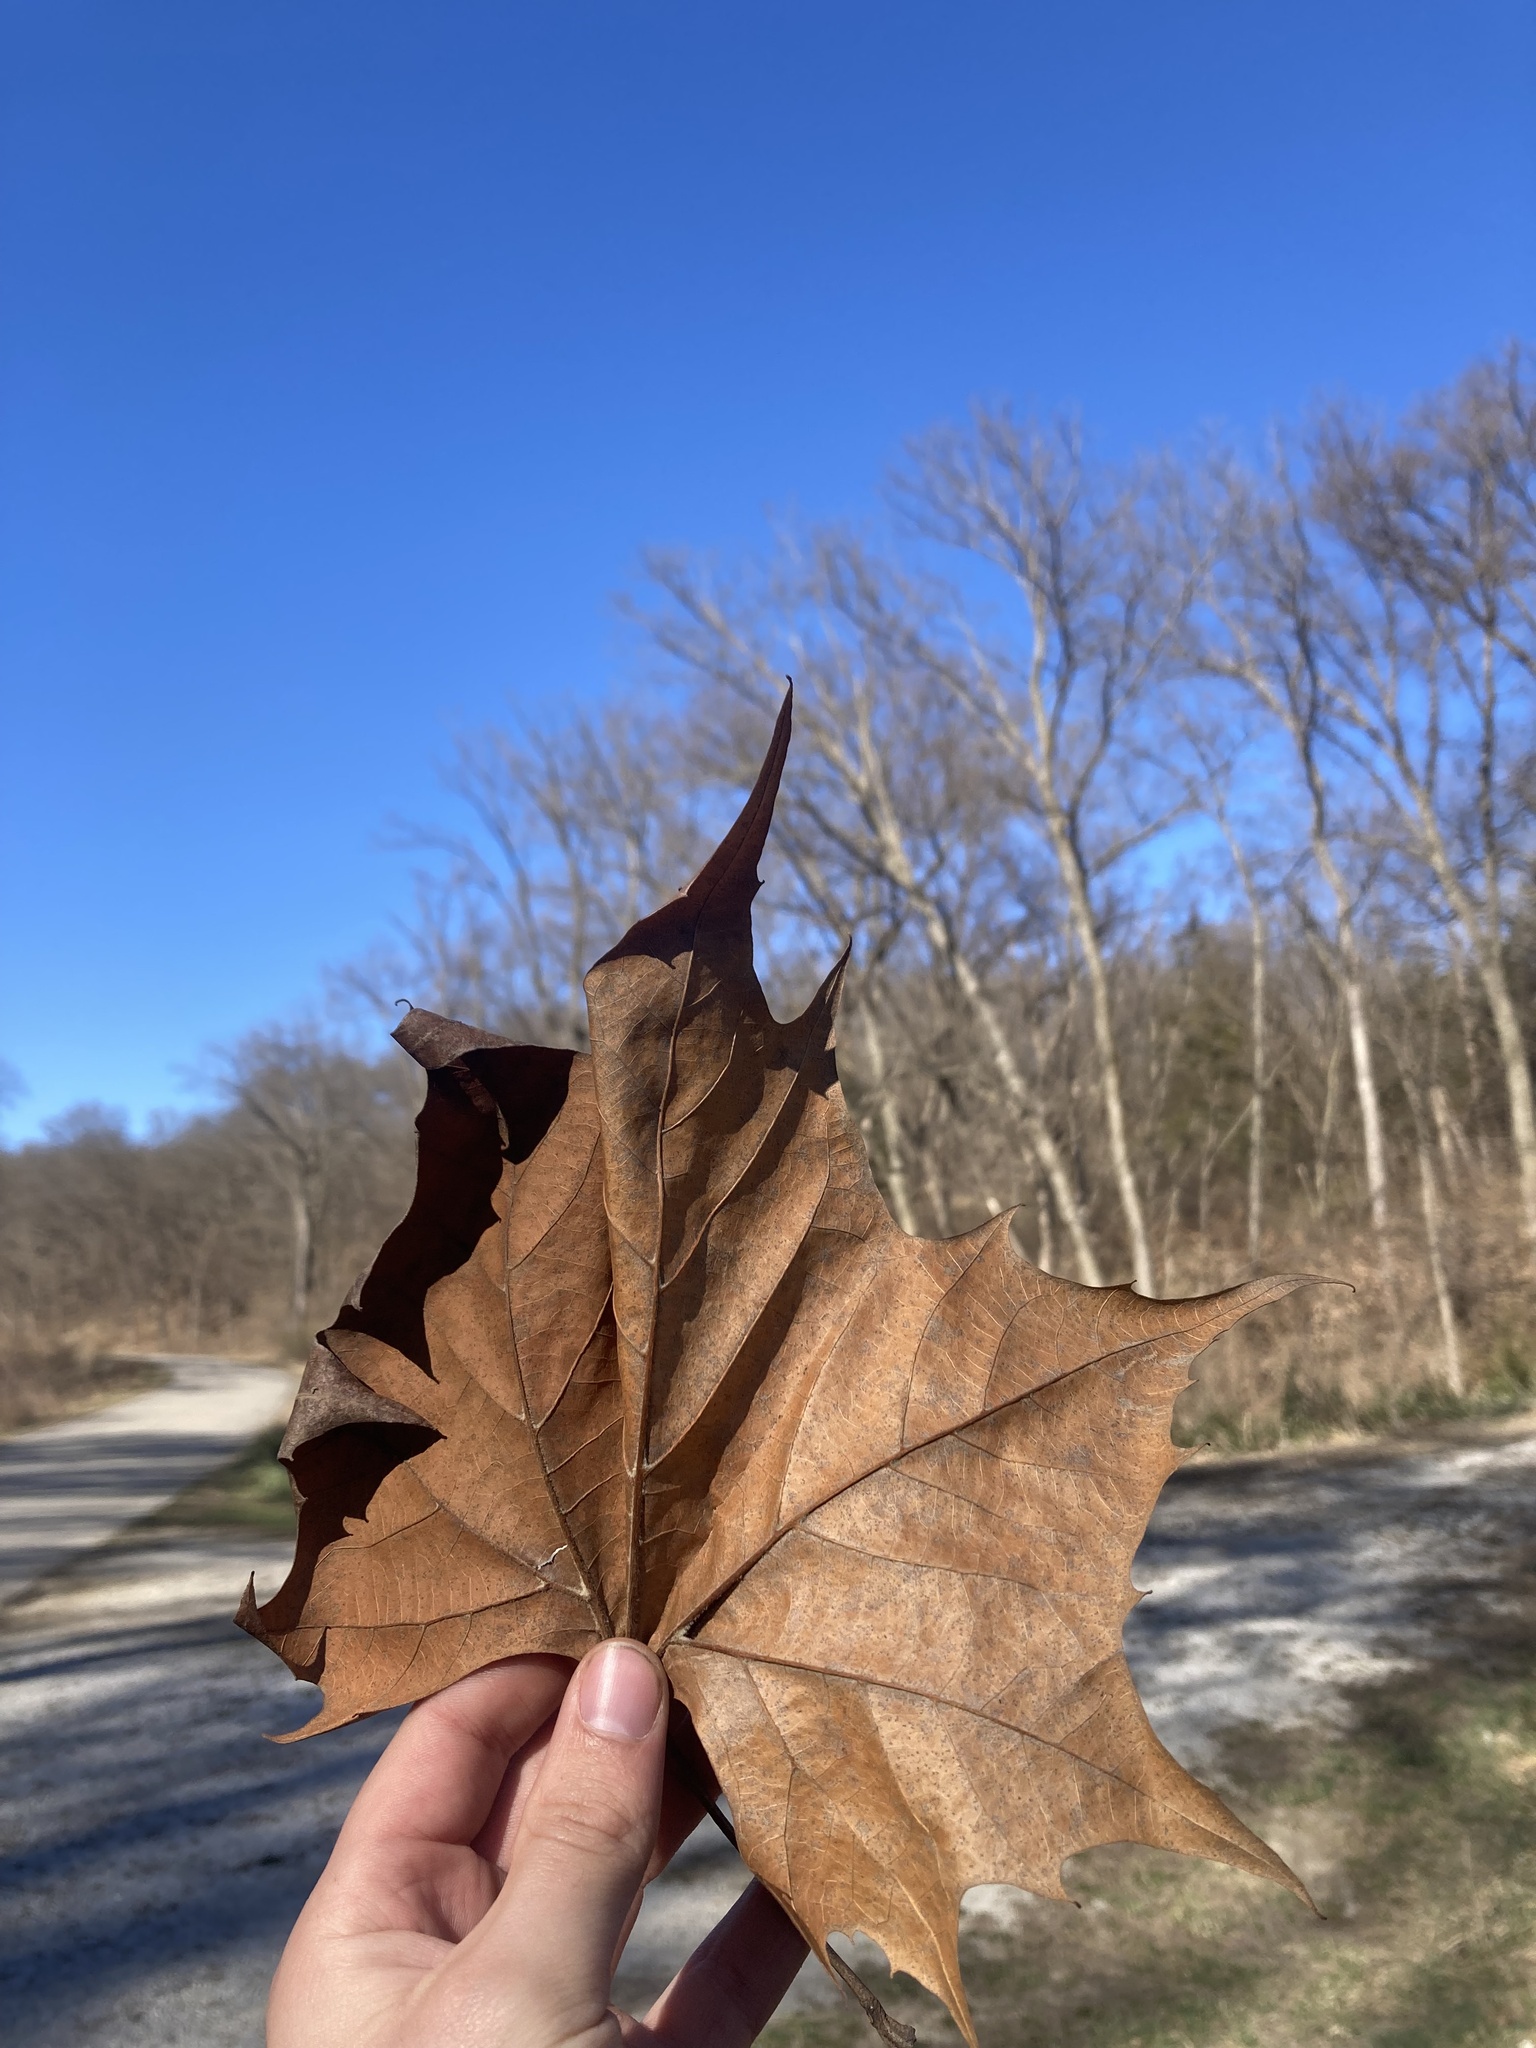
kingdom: Plantae
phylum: Tracheophyta
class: Magnoliopsida
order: Proteales
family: Platanaceae
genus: Platanus
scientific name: Platanus occidentalis
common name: American sycamore
